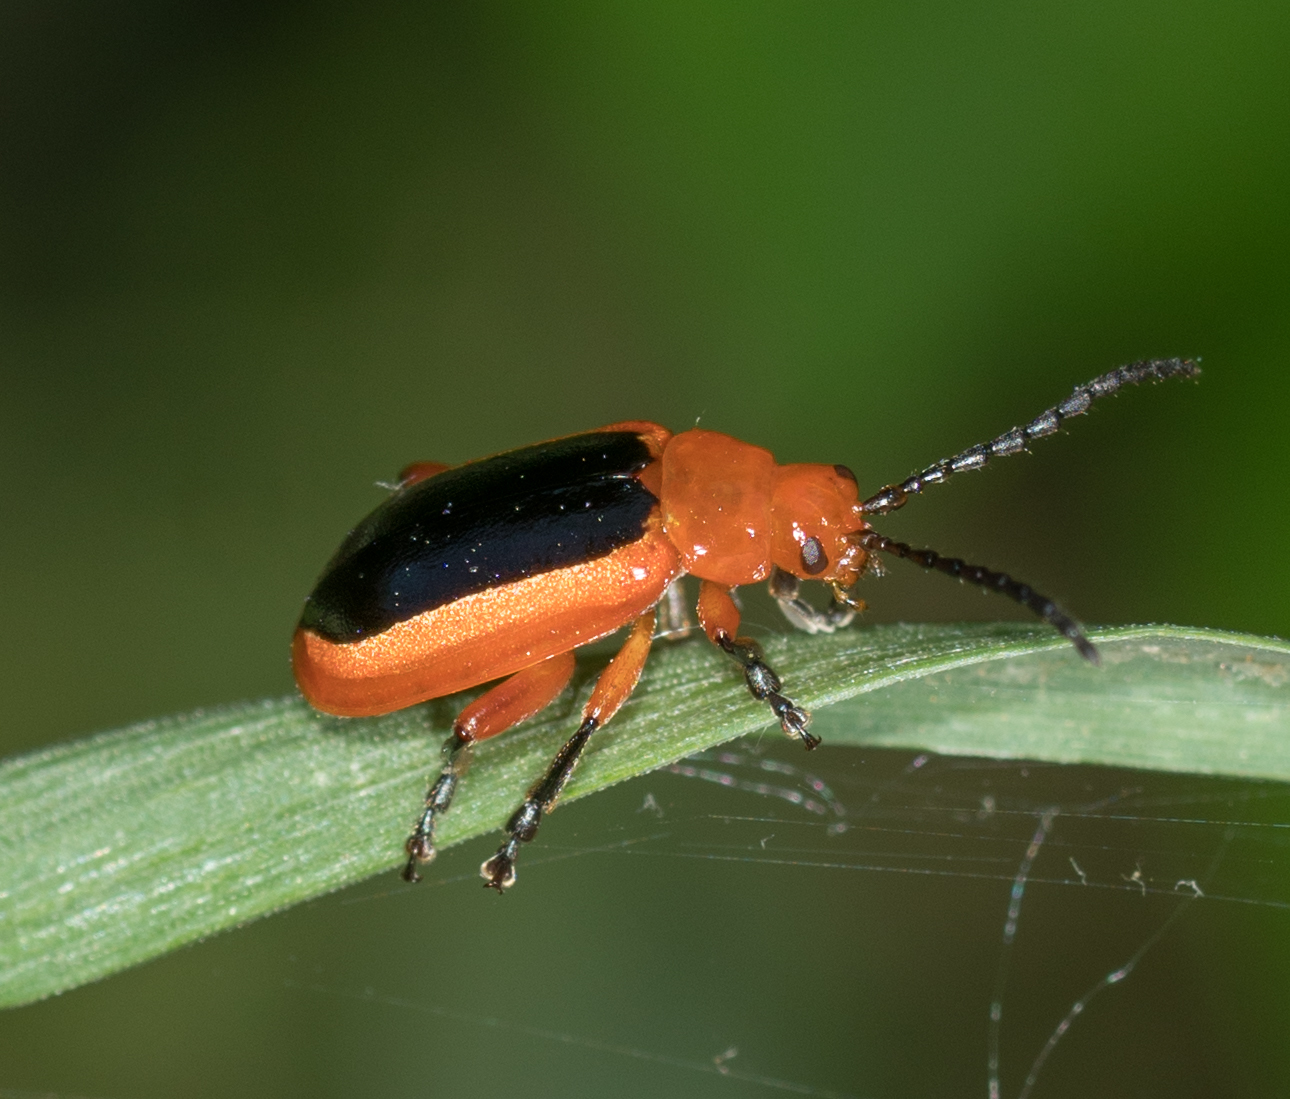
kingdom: Animalia
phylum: Arthropoda
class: Insecta
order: Coleoptera
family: Chrysomelidae
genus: Disonycha
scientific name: Disonycha discoidea
